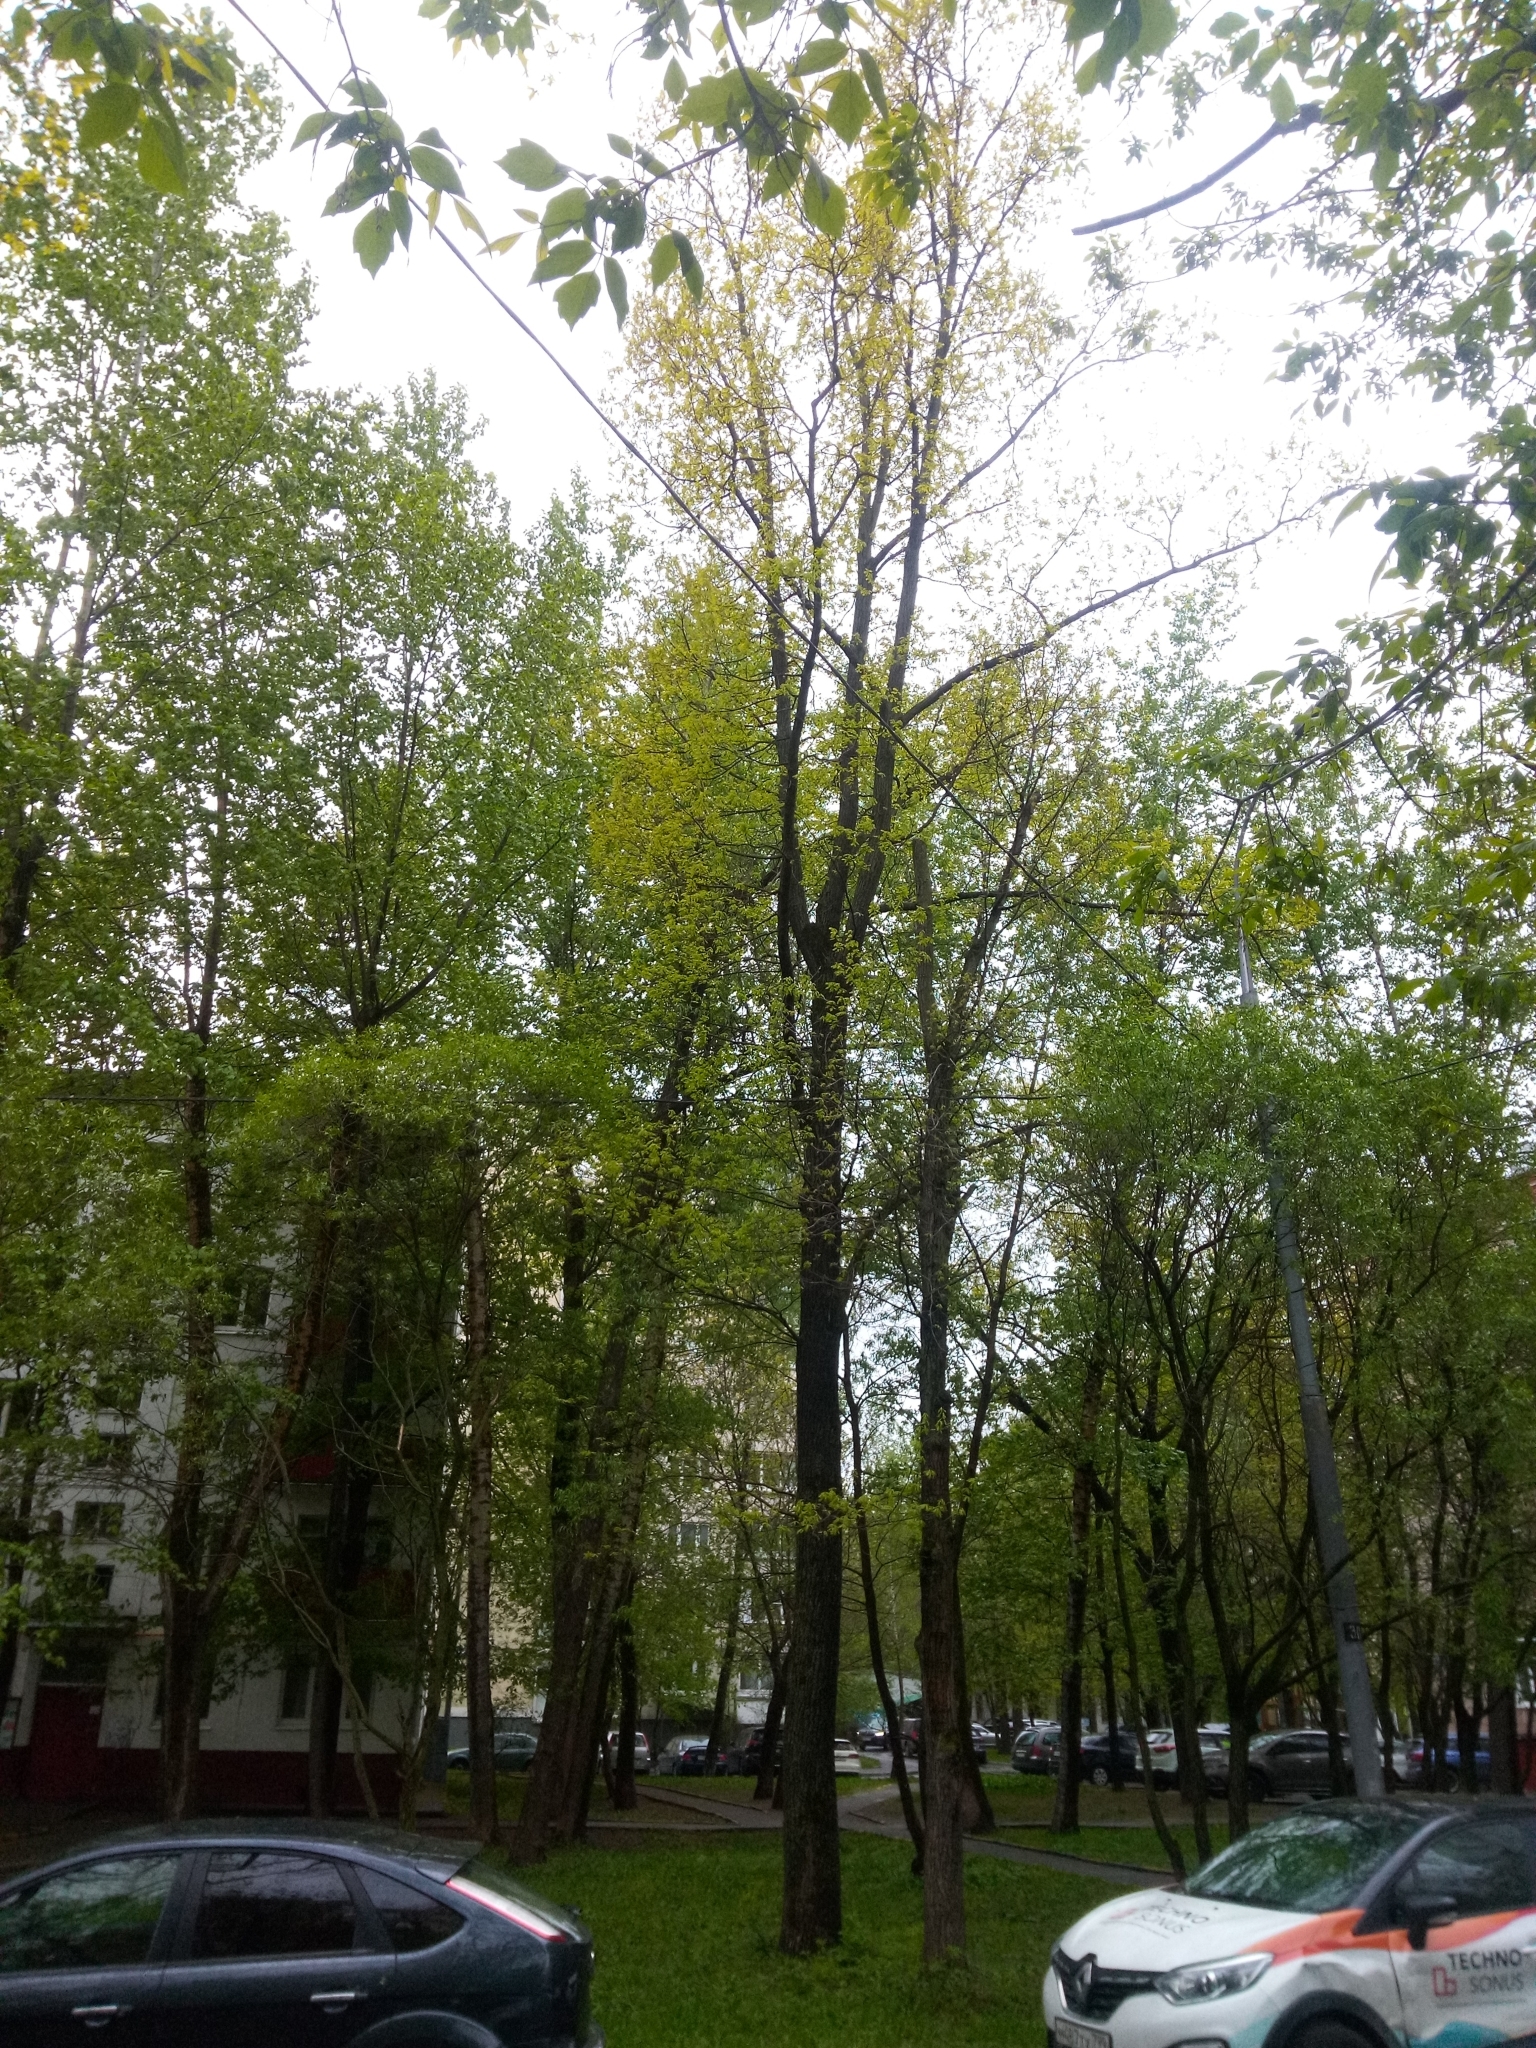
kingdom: Plantae
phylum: Tracheophyta
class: Magnoliopsida
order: Fagales
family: Fagaceae
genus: Quercus
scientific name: Quercus robur
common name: Pedunculate oak
